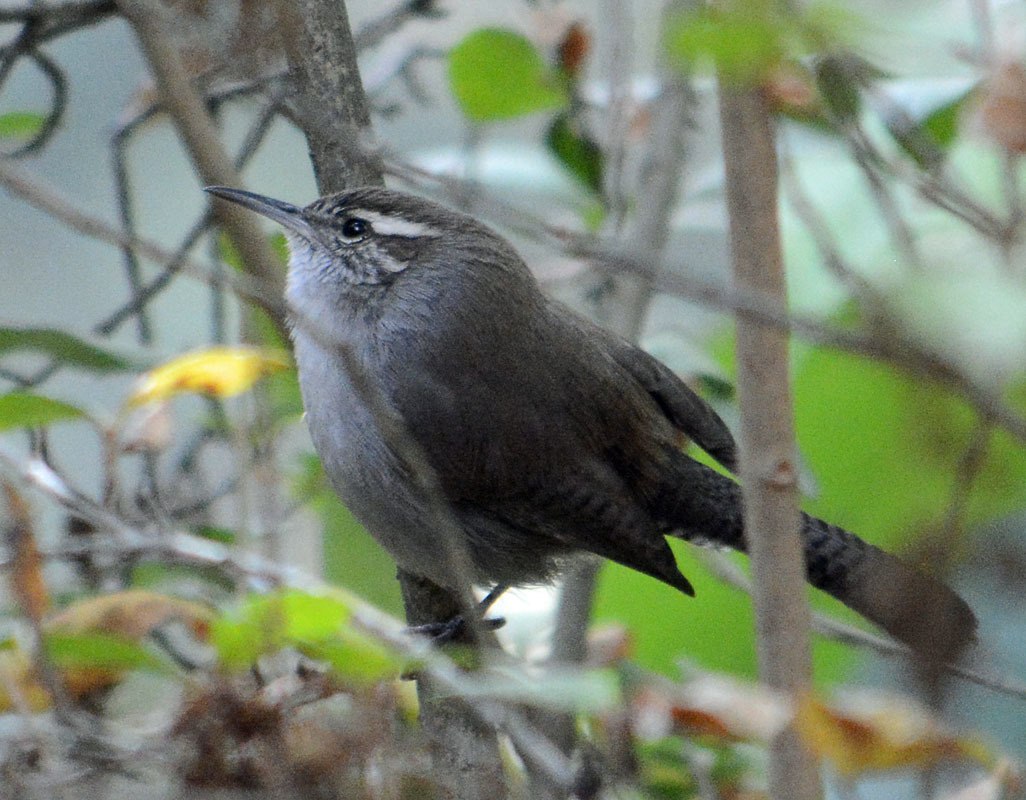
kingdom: Animalia
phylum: Chordata
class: Aves
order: Passeriformes
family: Troglodytidae
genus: Thryomanes
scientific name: Thryomanes bewickii
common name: Bewick's wren
